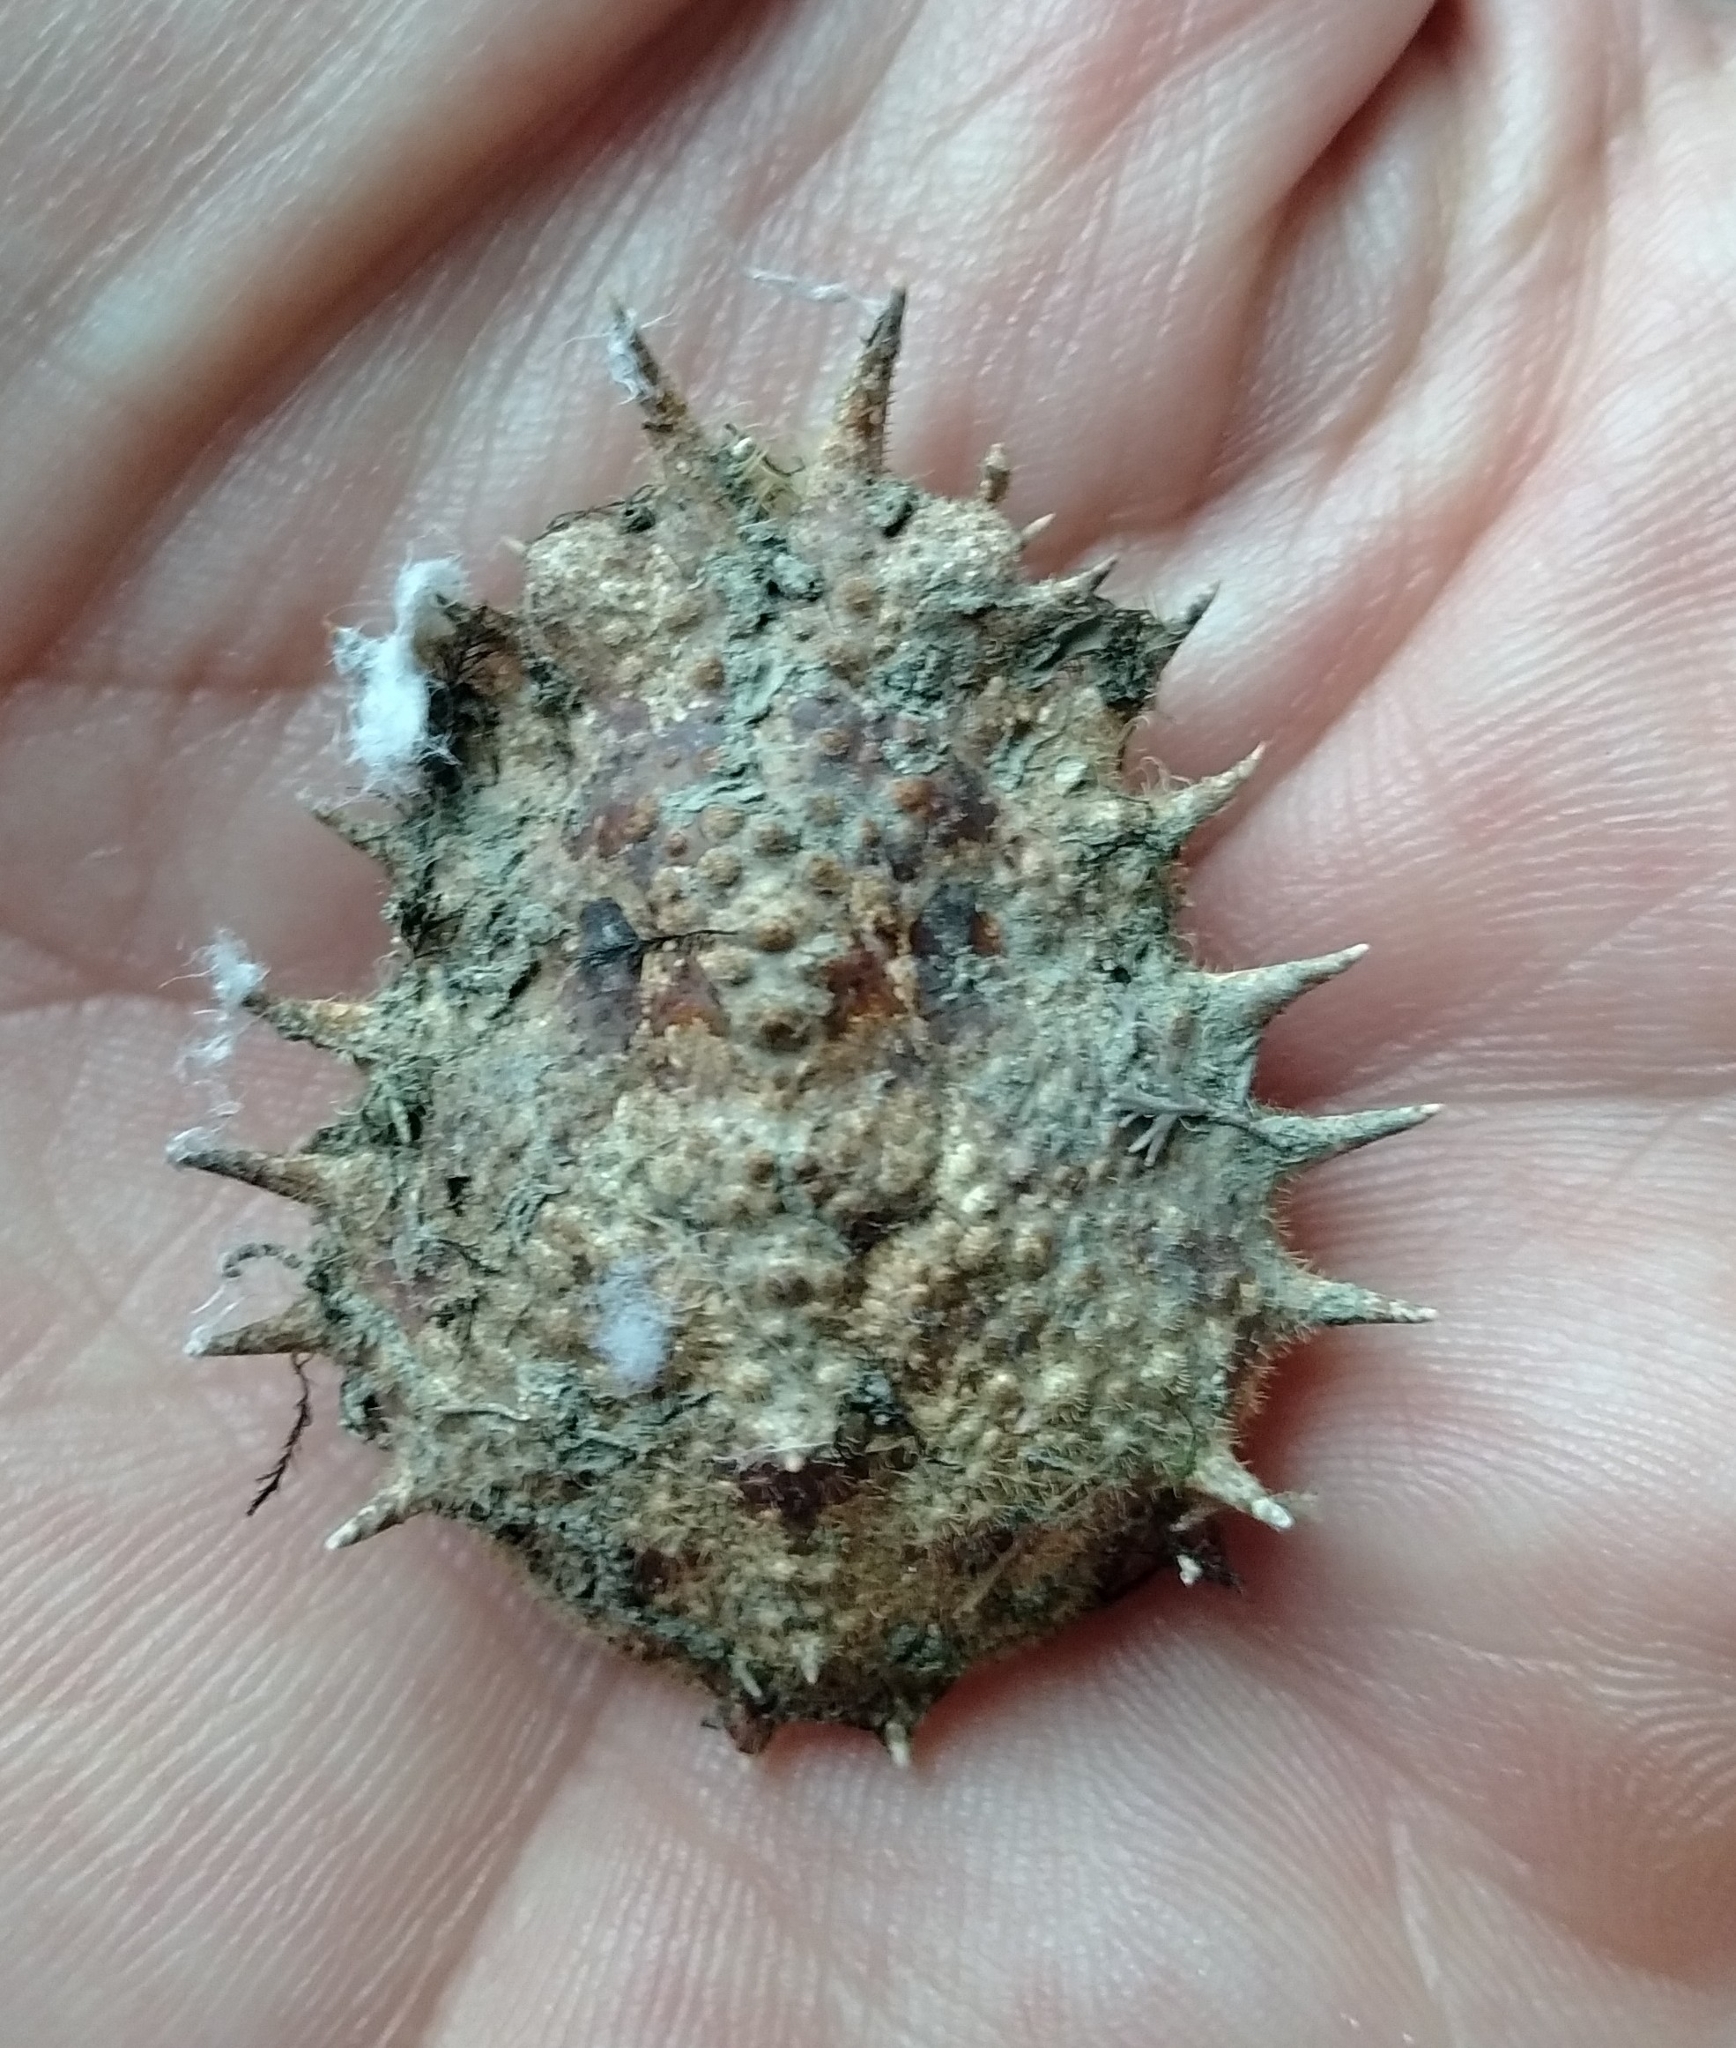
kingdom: Animalia
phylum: Arthropoda
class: Malacostraca
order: Decapoda
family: Majidae
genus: Maja
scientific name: Maja crispata
